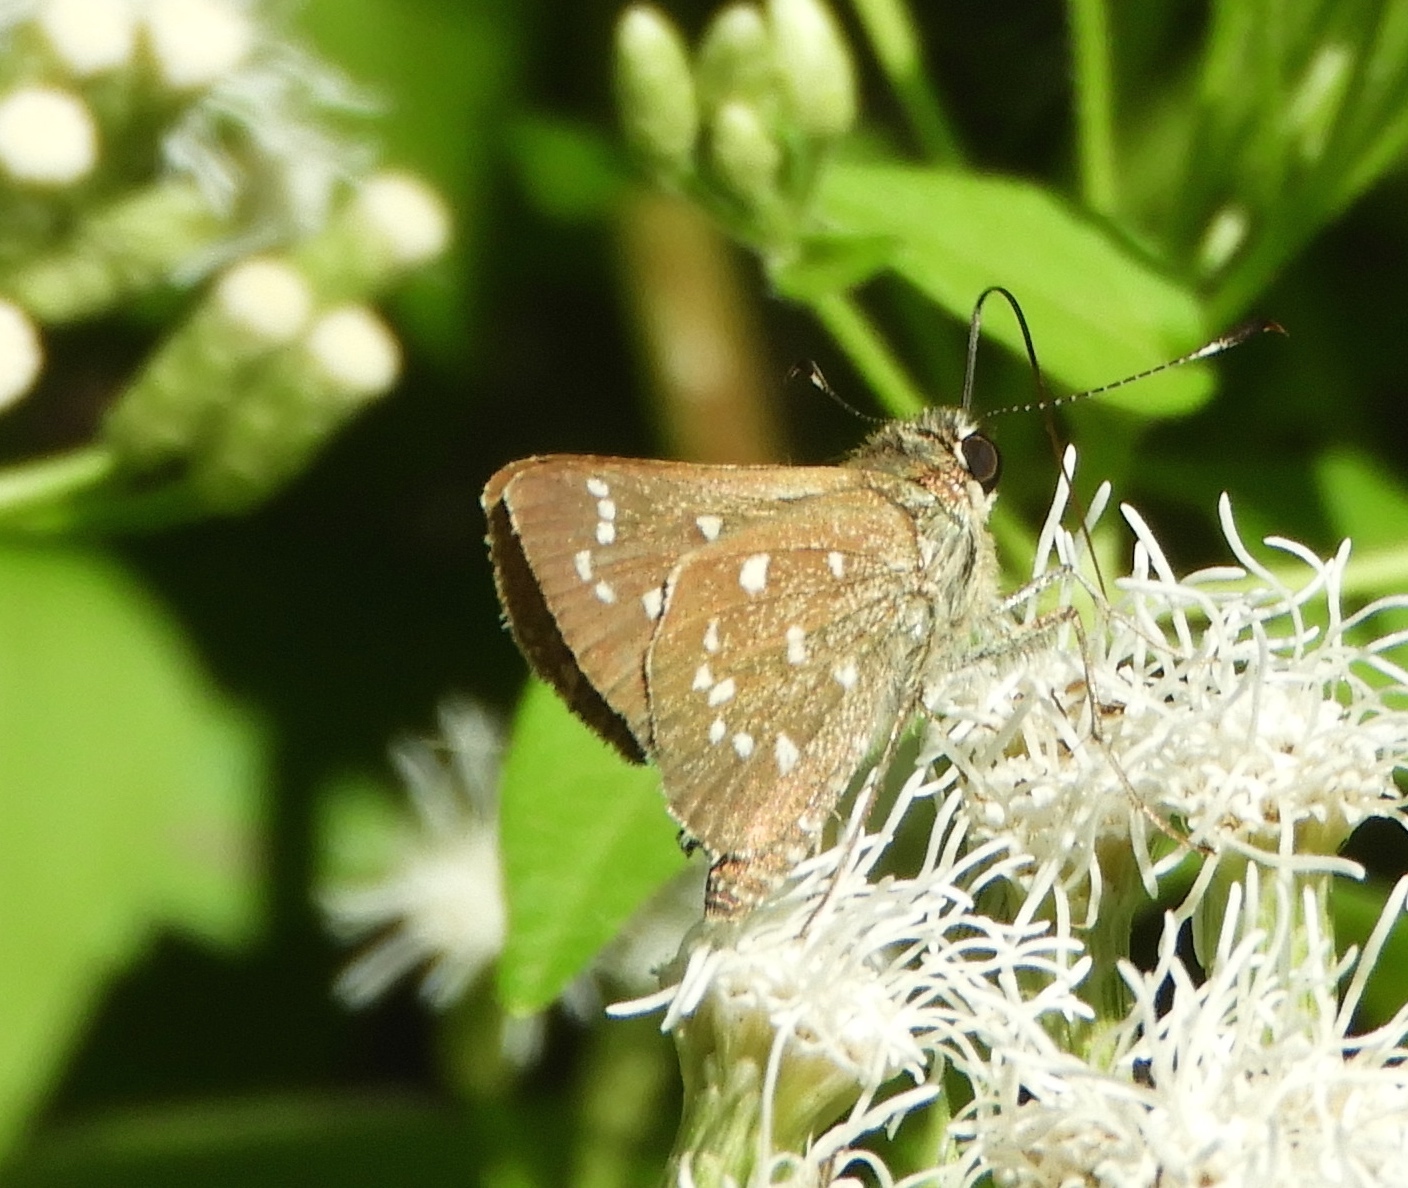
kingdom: Animalia
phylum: Arthropoda
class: Insecta
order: Lepidoptera
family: Hesperiidae
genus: Mastor
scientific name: Mastor tolteca
